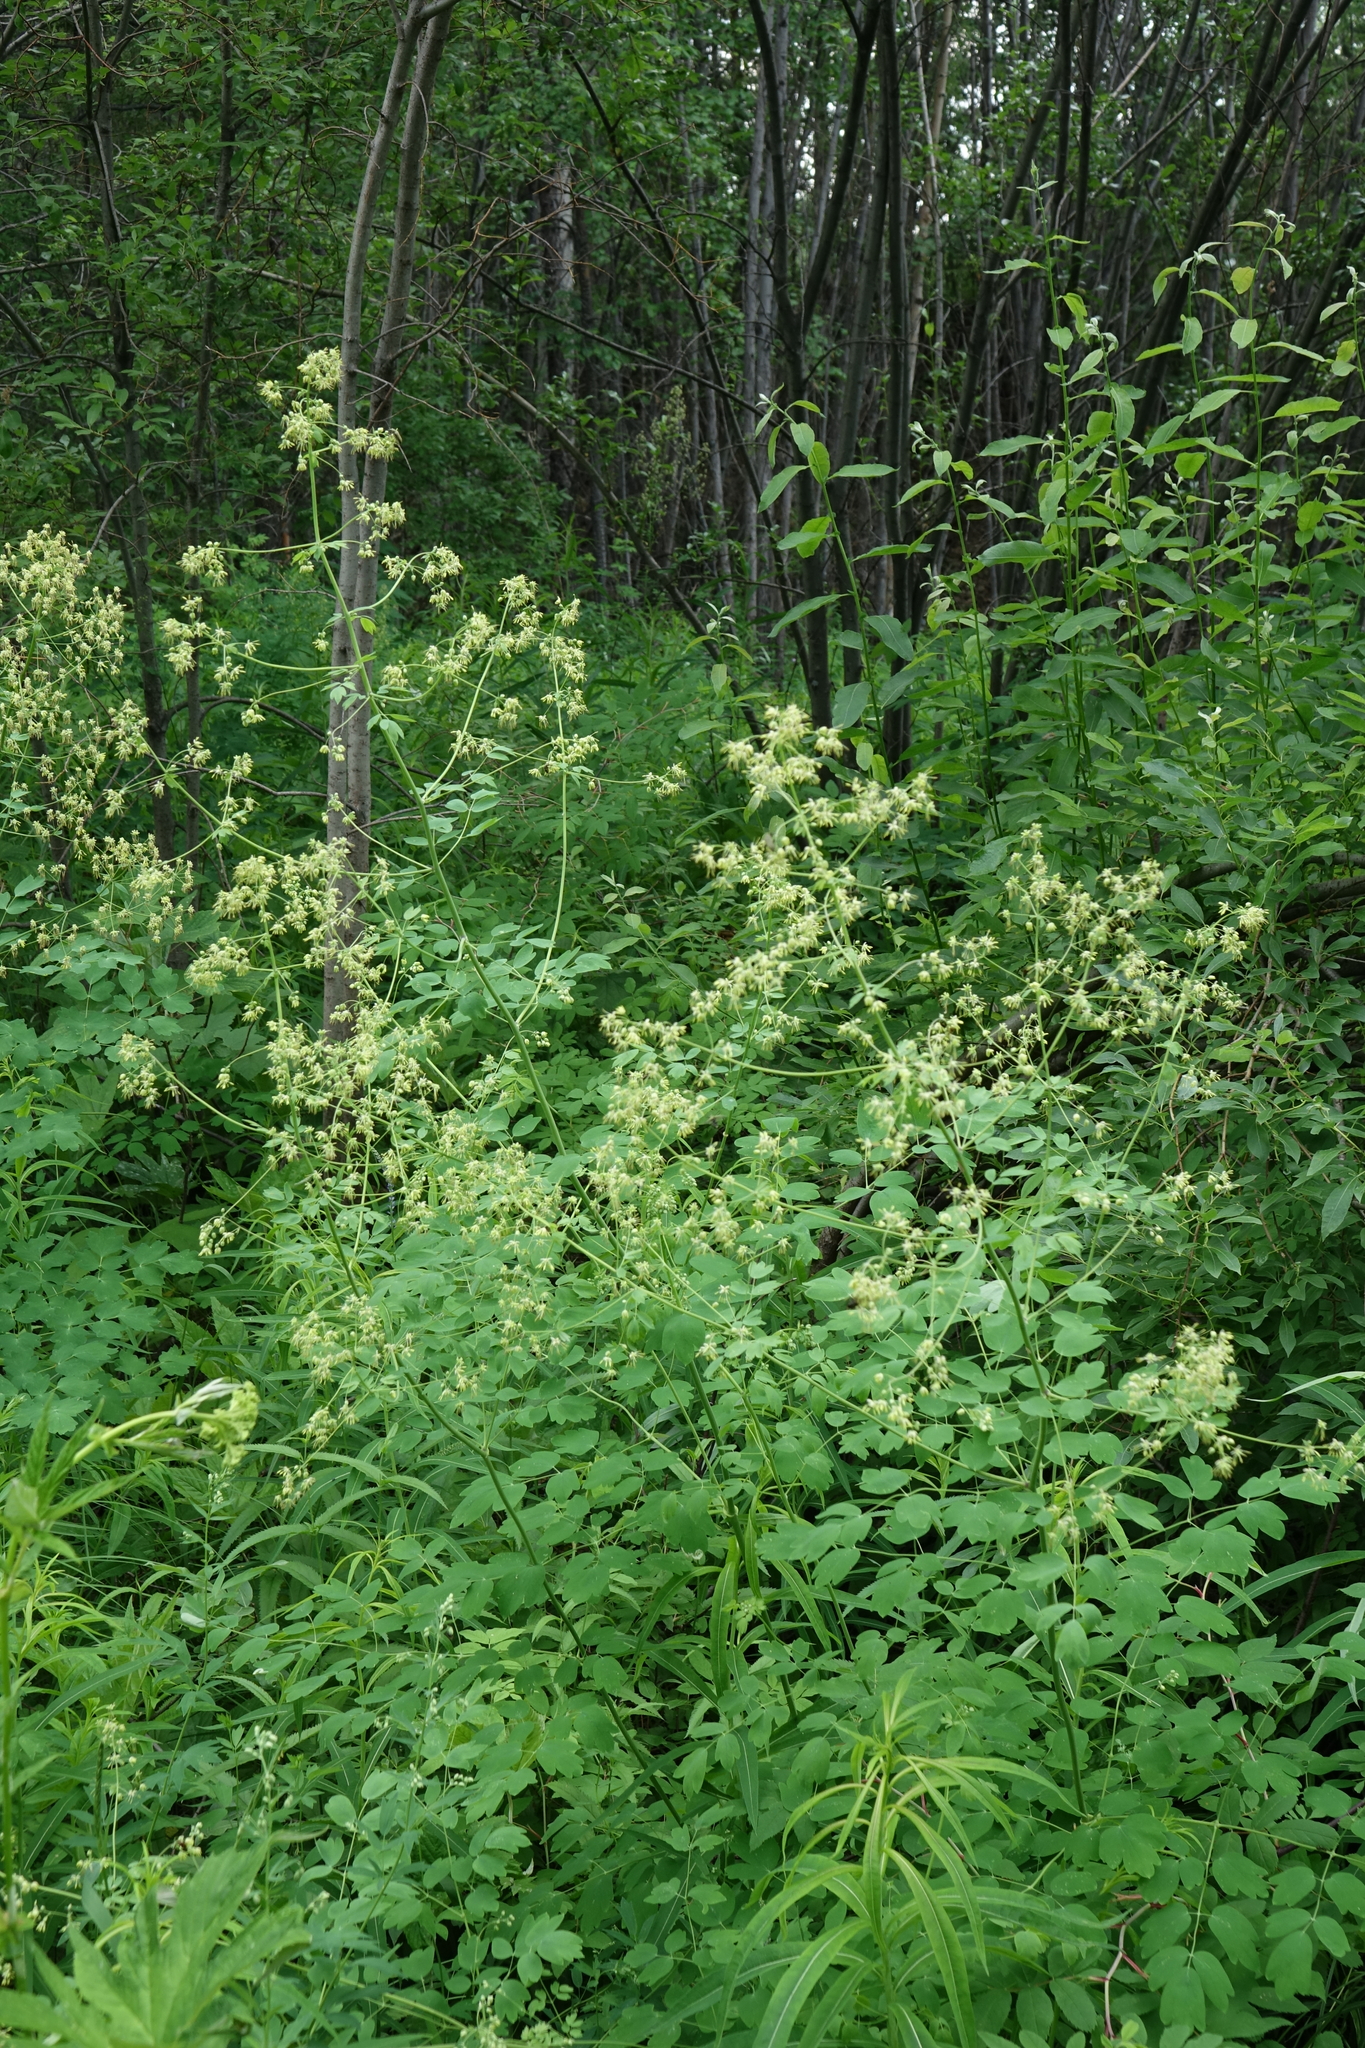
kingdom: Plantae
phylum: Tracheophyta
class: Magnoliopsida
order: Ranunculales
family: Ranunculaceae
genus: Thalictrum
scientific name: Thalictrum minus
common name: Lesser meadow-rue
